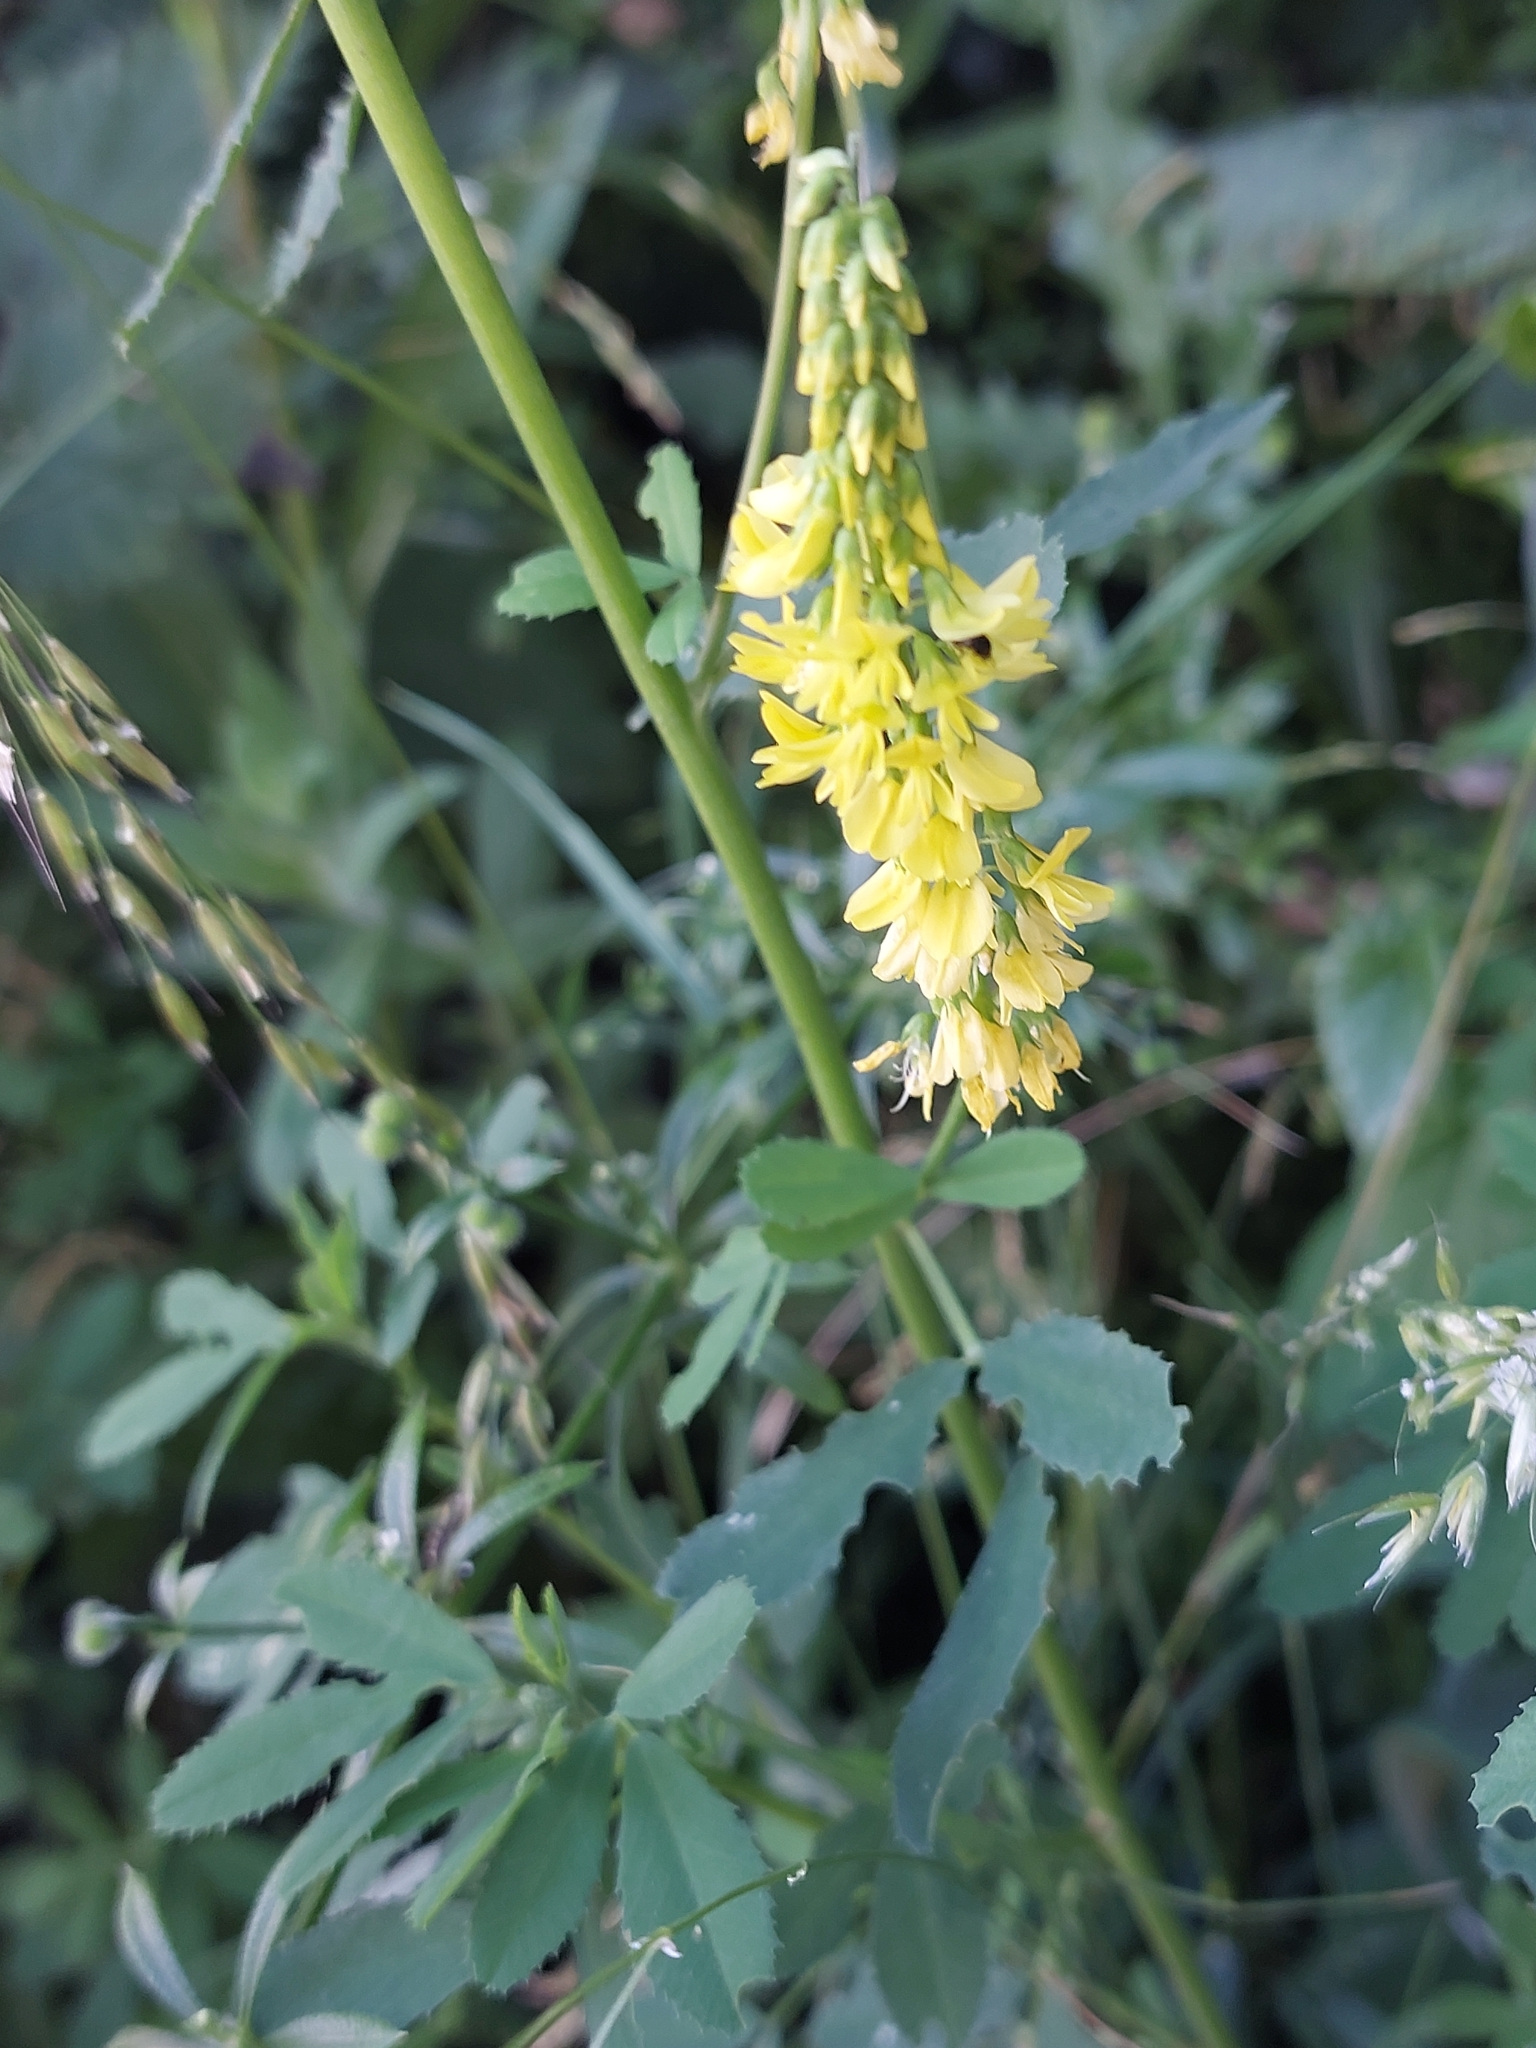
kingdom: Plantae
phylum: Tracheophyta
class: Magnoliopsida
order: Fabales
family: Fabaceae
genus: Melilotus
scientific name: Melilotus officinalis
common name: Sweetclover
